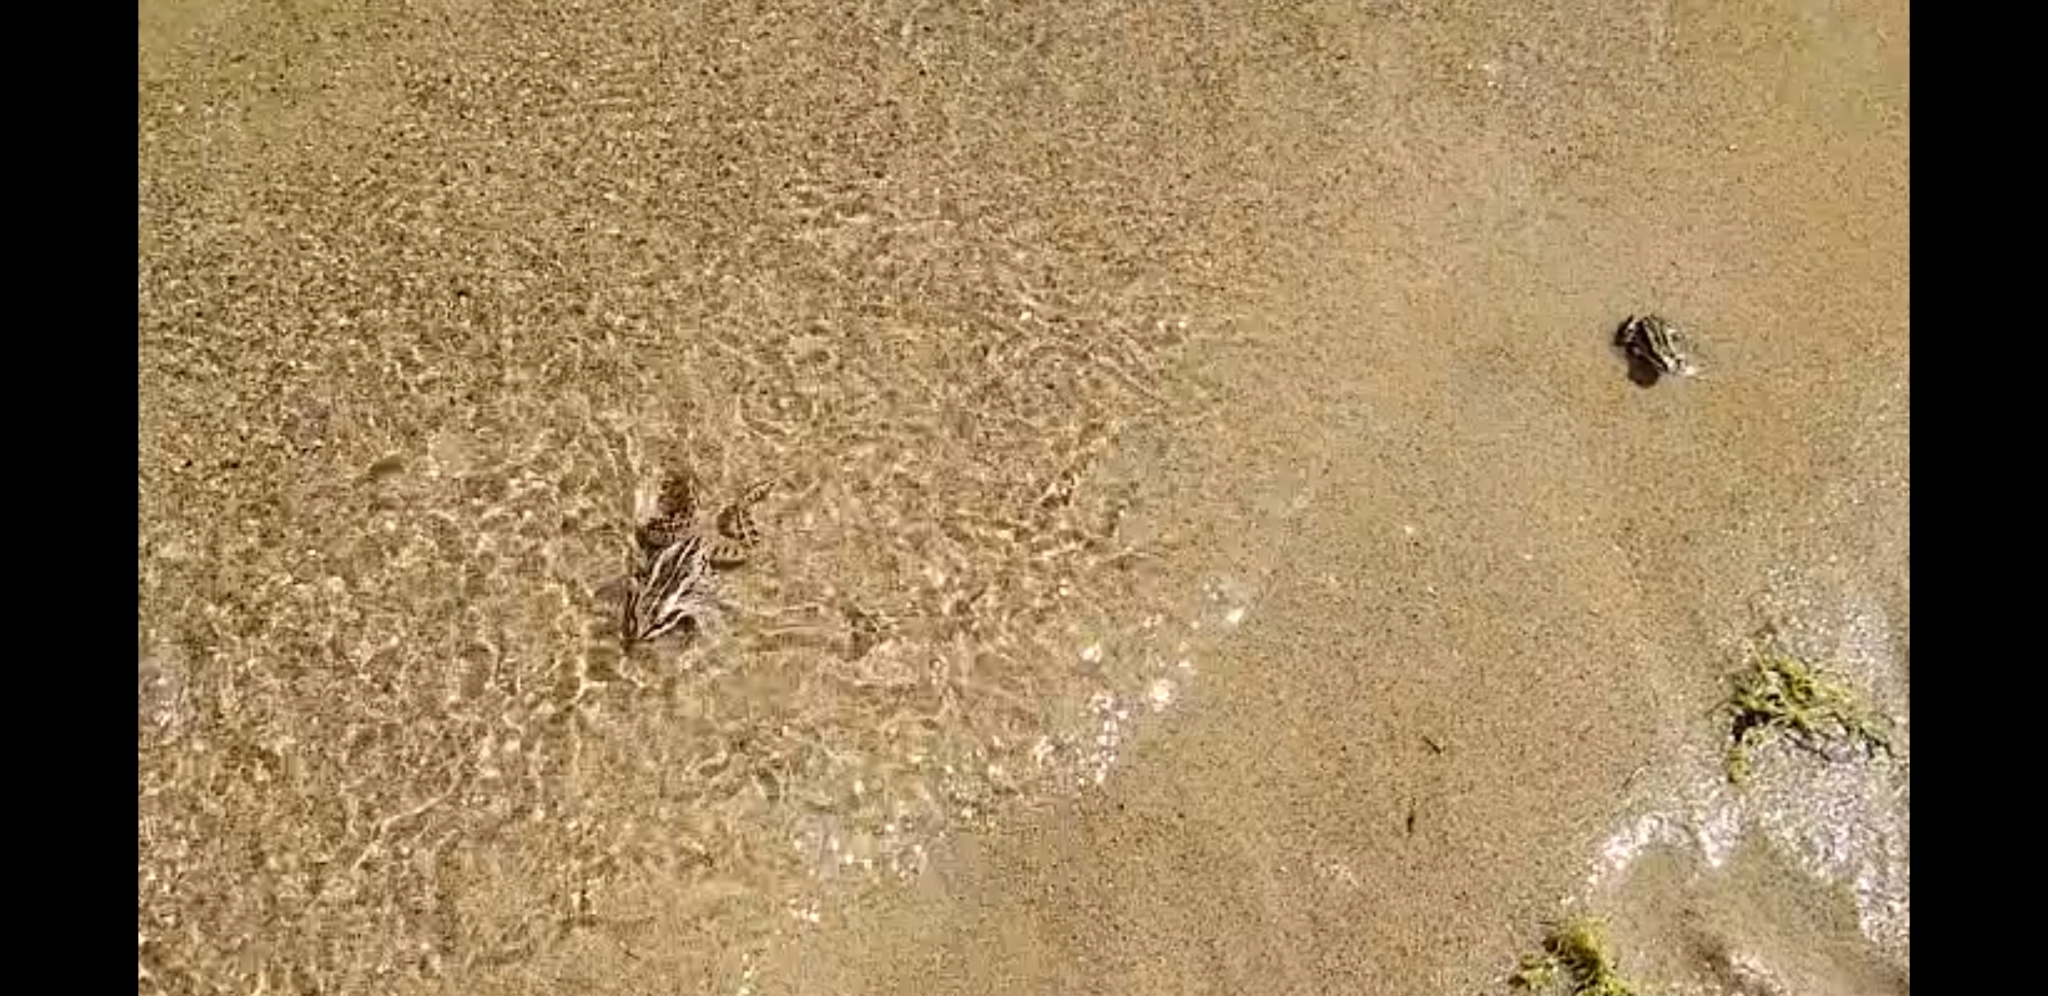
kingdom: Animalia
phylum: Chordata
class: Amphibia
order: Anura
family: Ranidae
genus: Lithobates
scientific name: Lithobates sylvaticus
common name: Wood frog
